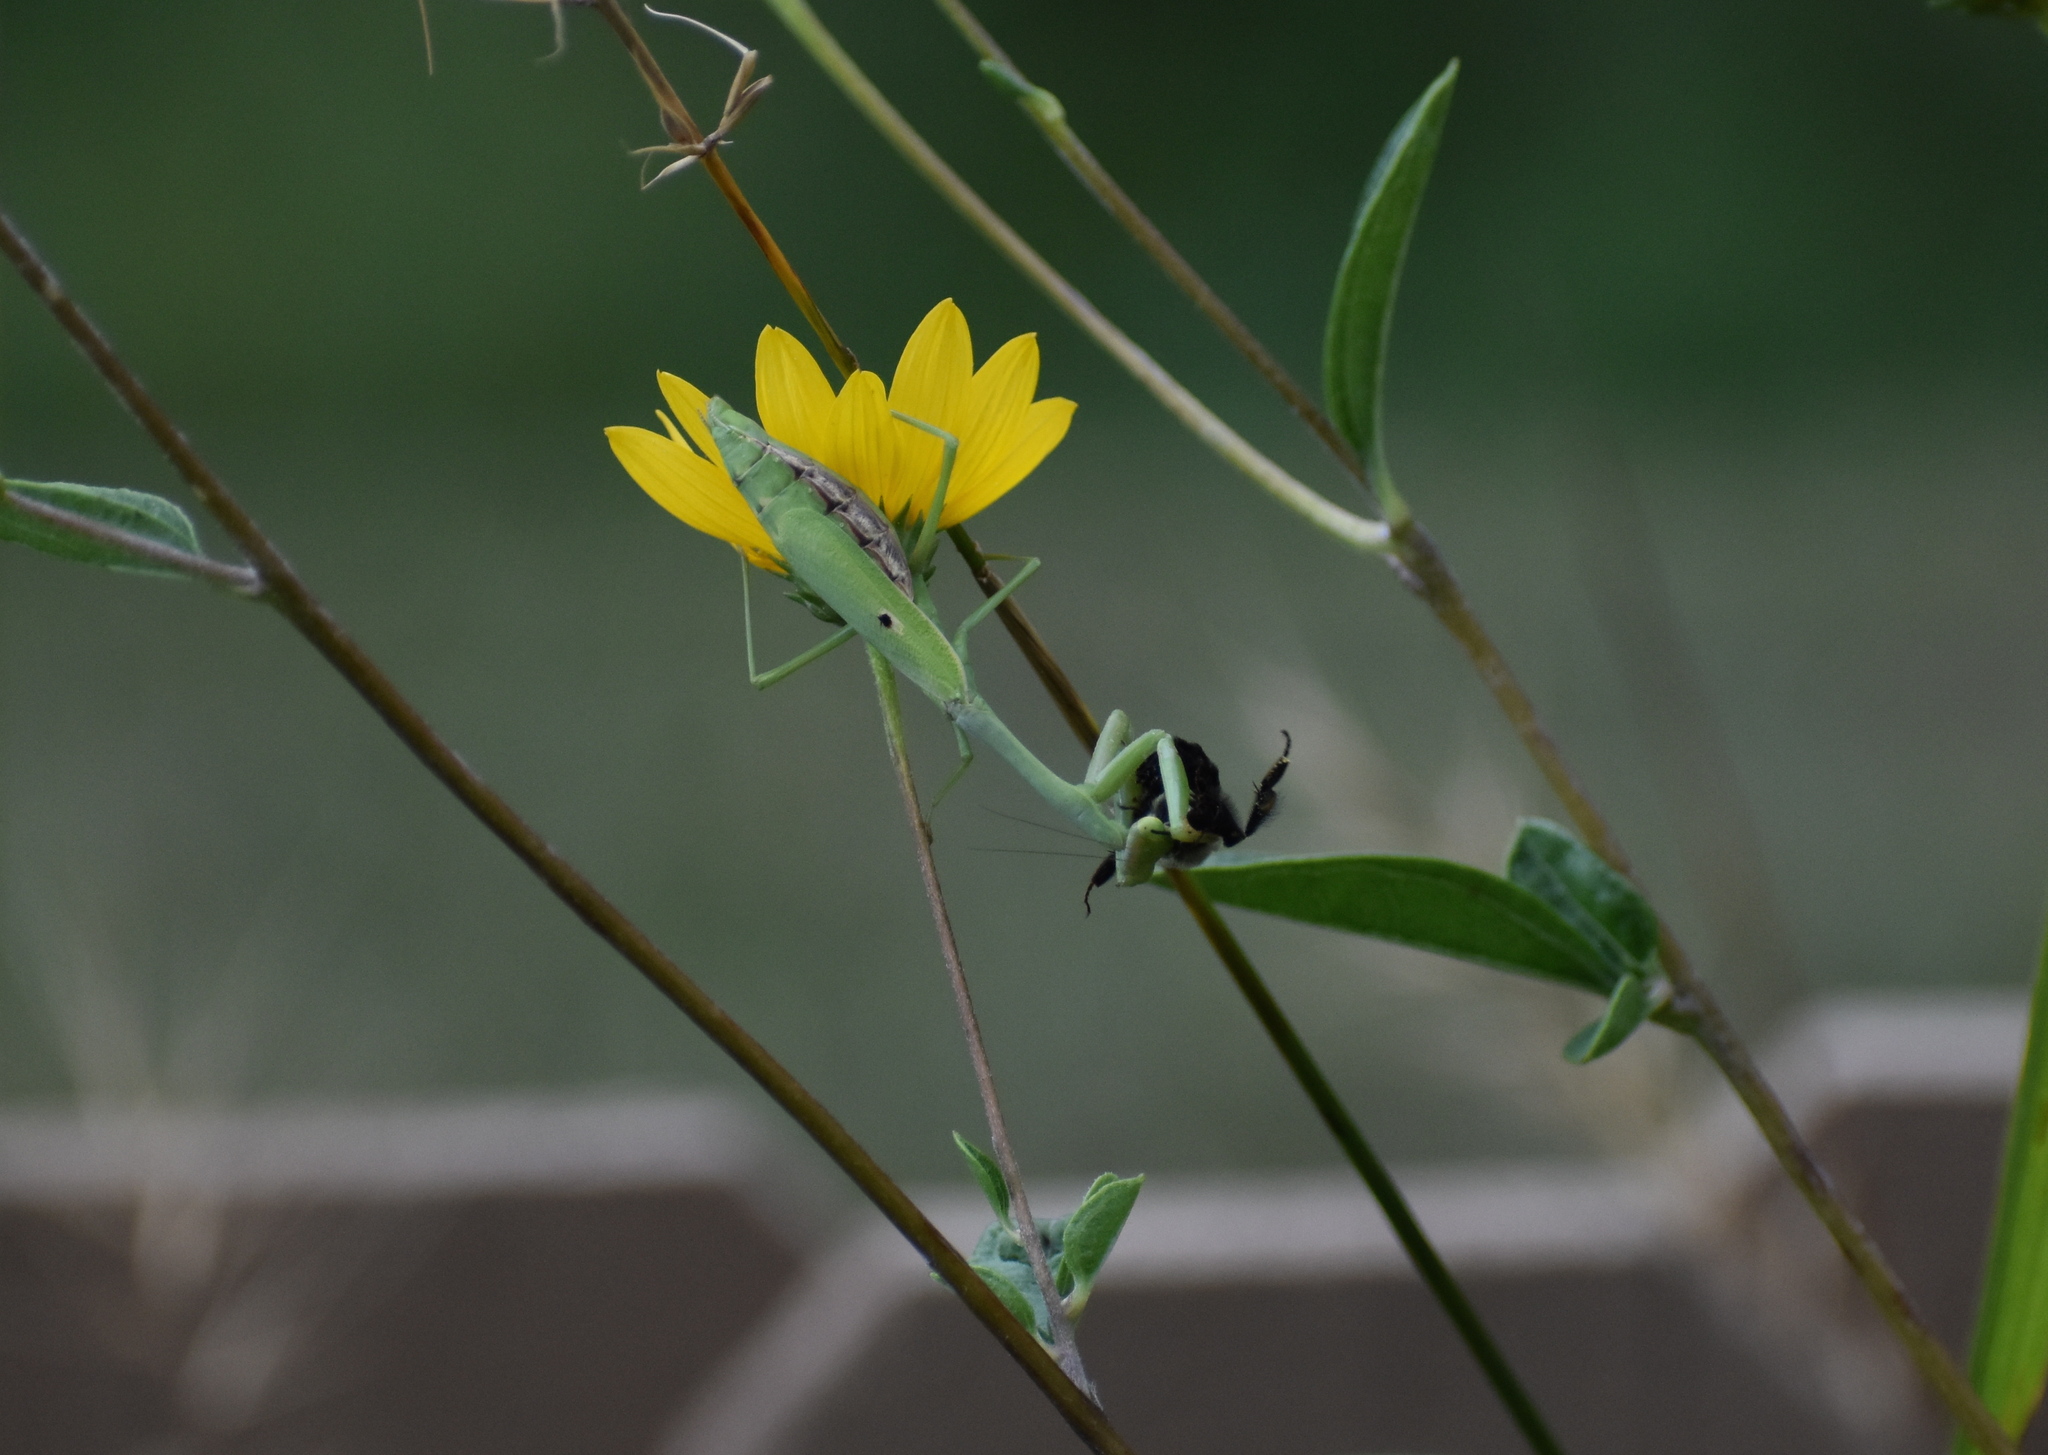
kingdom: Animalia
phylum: Arthropoda
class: Insecta
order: Mantodea
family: Mantidae
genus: Stagmomantis
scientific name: Stagmomantis carolina
